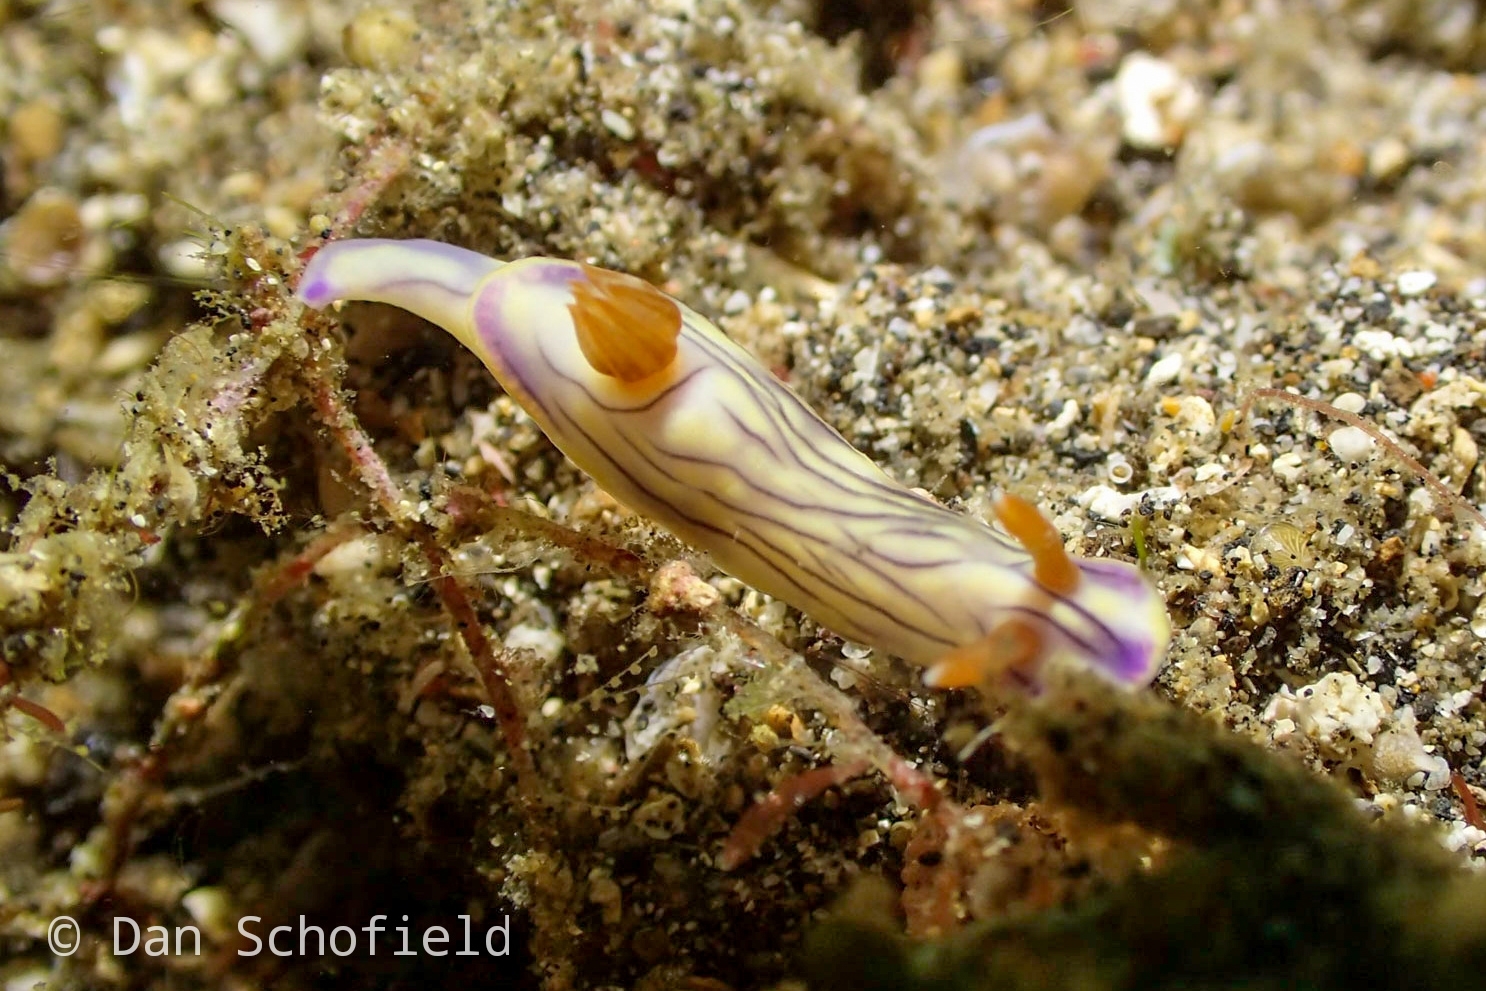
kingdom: Animalia
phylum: Mollusca
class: Gastropoda
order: Nudibranchia
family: Chromodorididae
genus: Hypselodoris
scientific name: Hypselodoris zephyra
